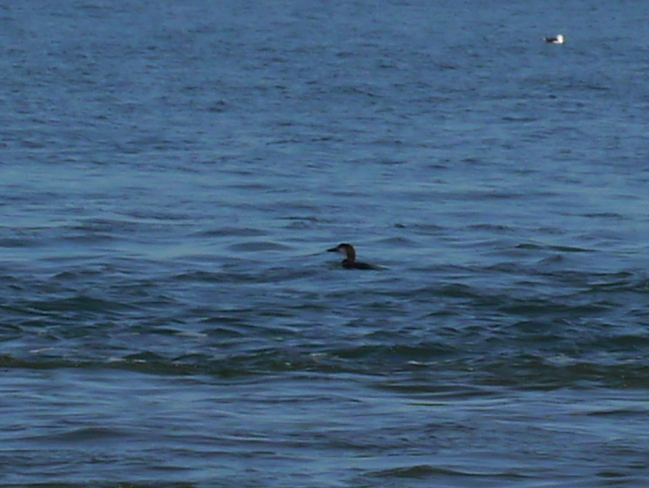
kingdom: Animalia
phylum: Chordata
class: Aves
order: Gaviiformes
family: Gaviidae
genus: Gavia
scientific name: Gavia immer
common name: Common loon
